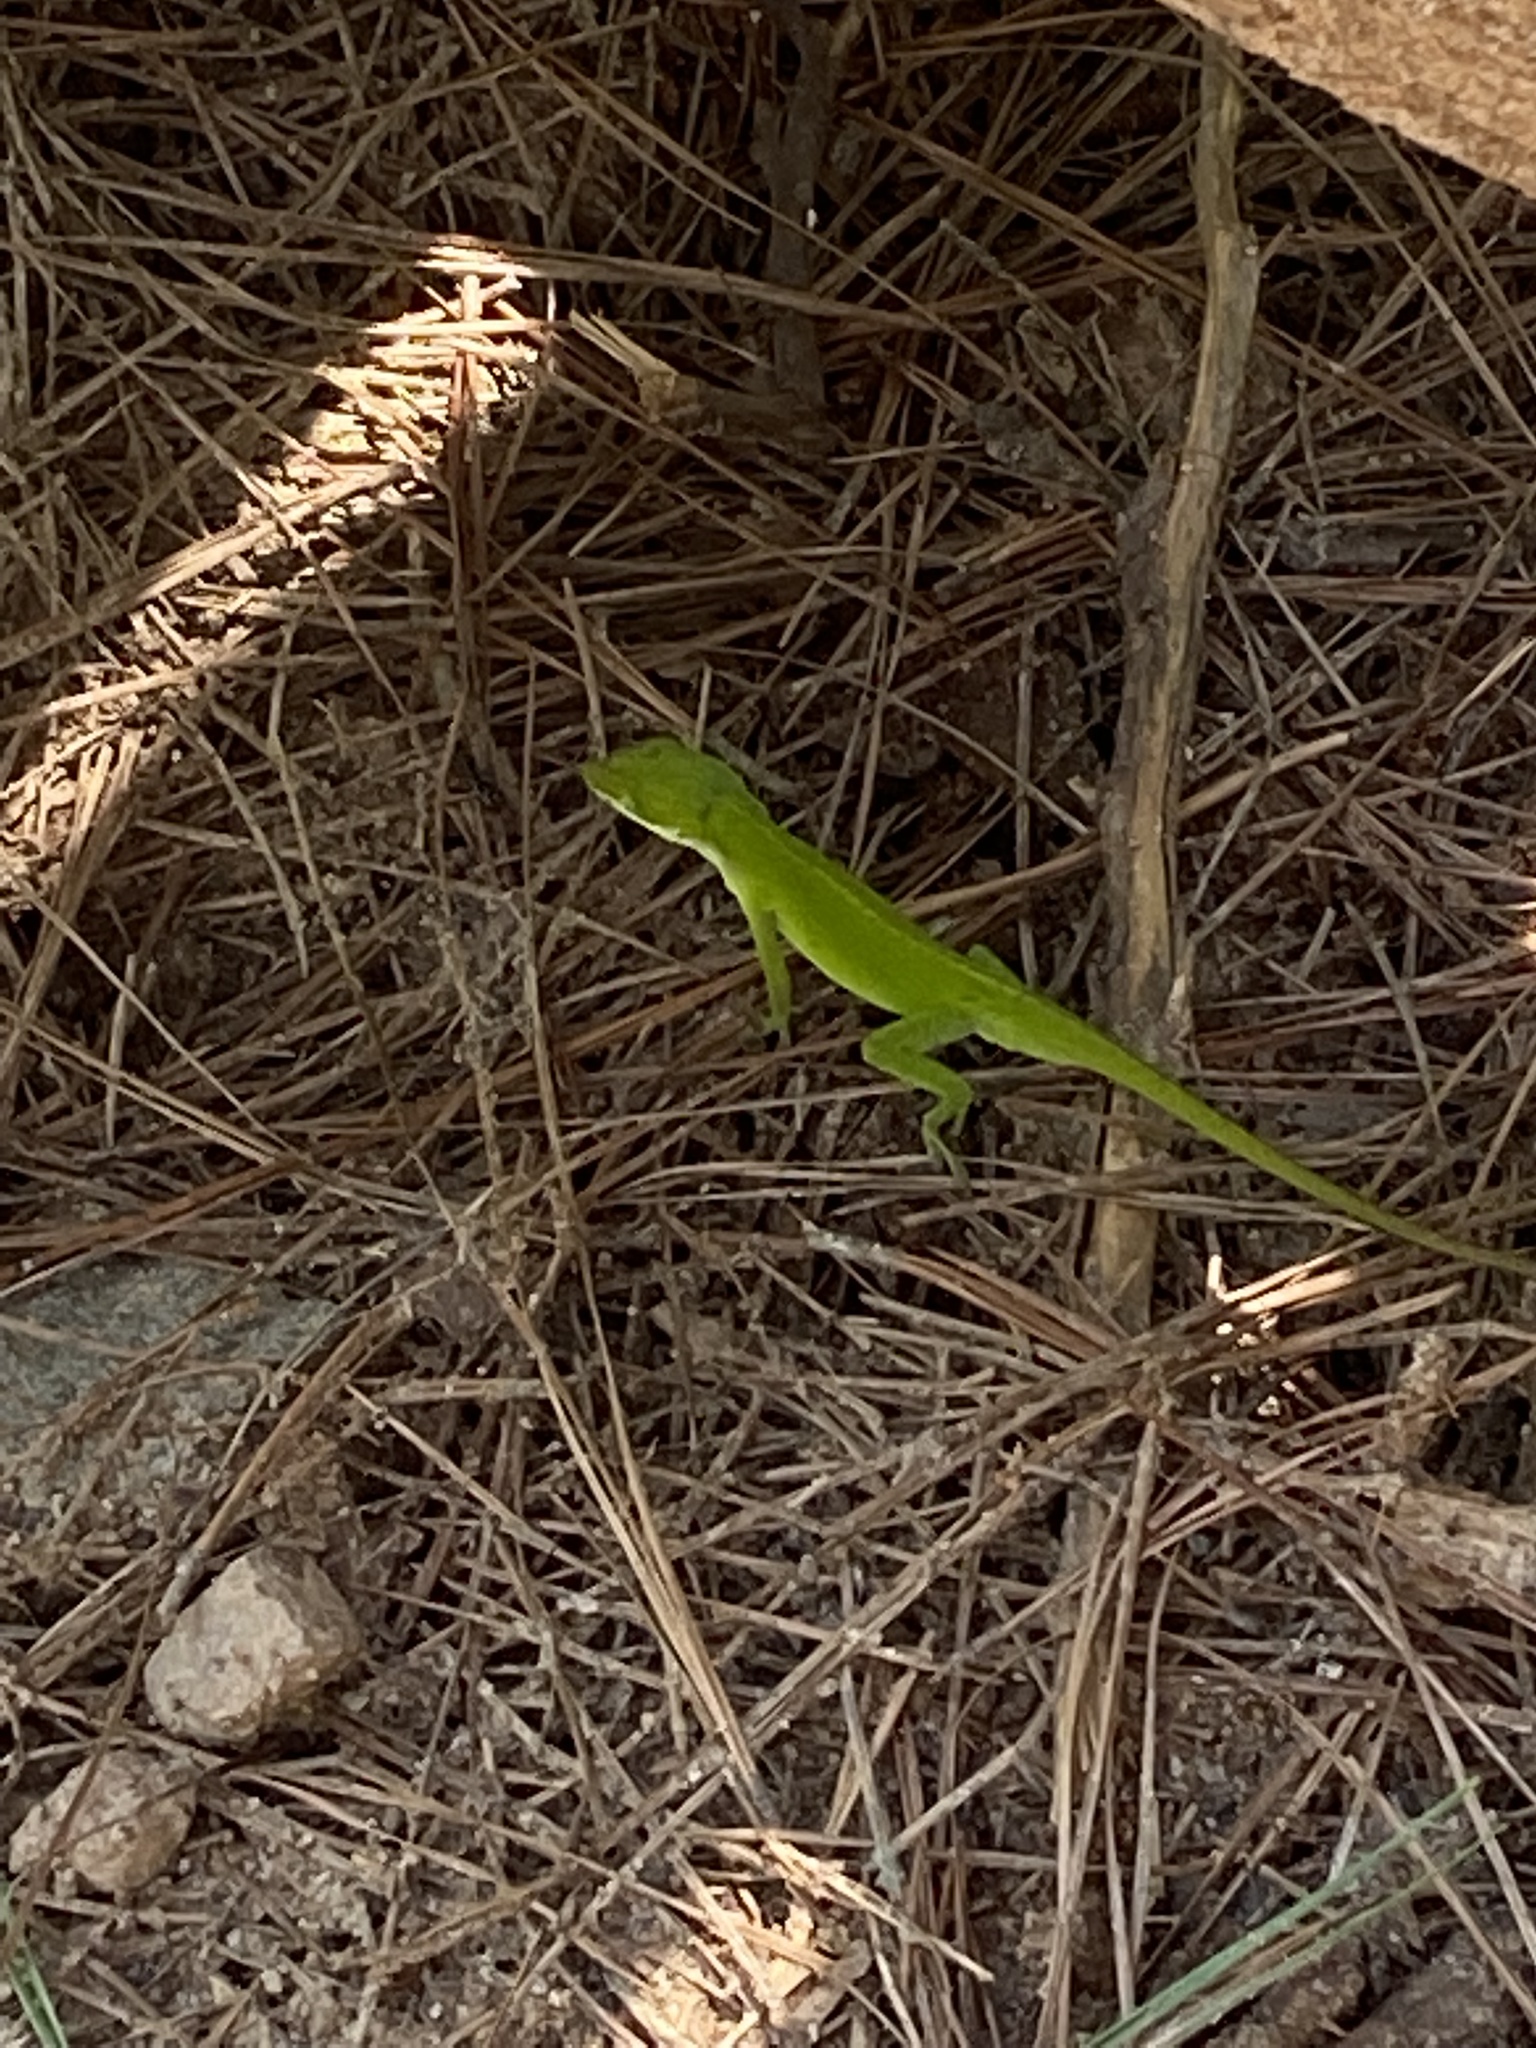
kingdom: Animalia
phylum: Chordata
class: Squamata
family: Dactyloidae
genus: Anolis
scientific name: Anolis carolinensis
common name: Green anole
